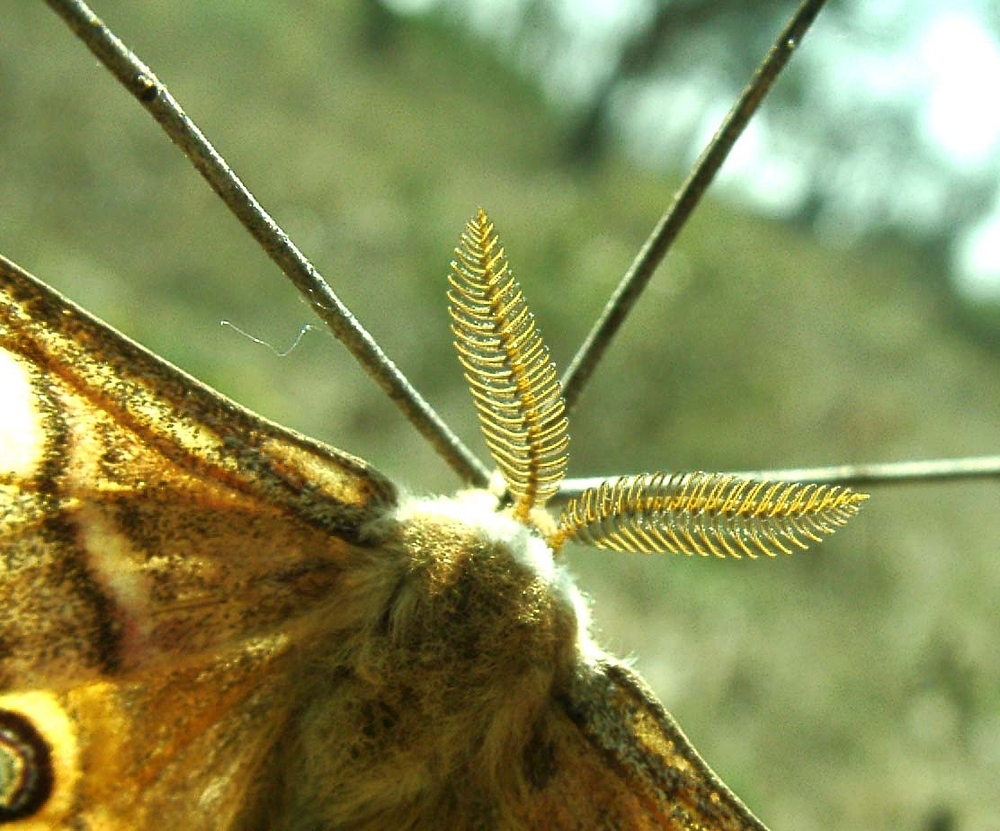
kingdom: Animalia
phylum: Arthropoda
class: Insecta
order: Lepidoptera
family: Saturniidae
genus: Saturnia
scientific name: Saturnia pavoniella
